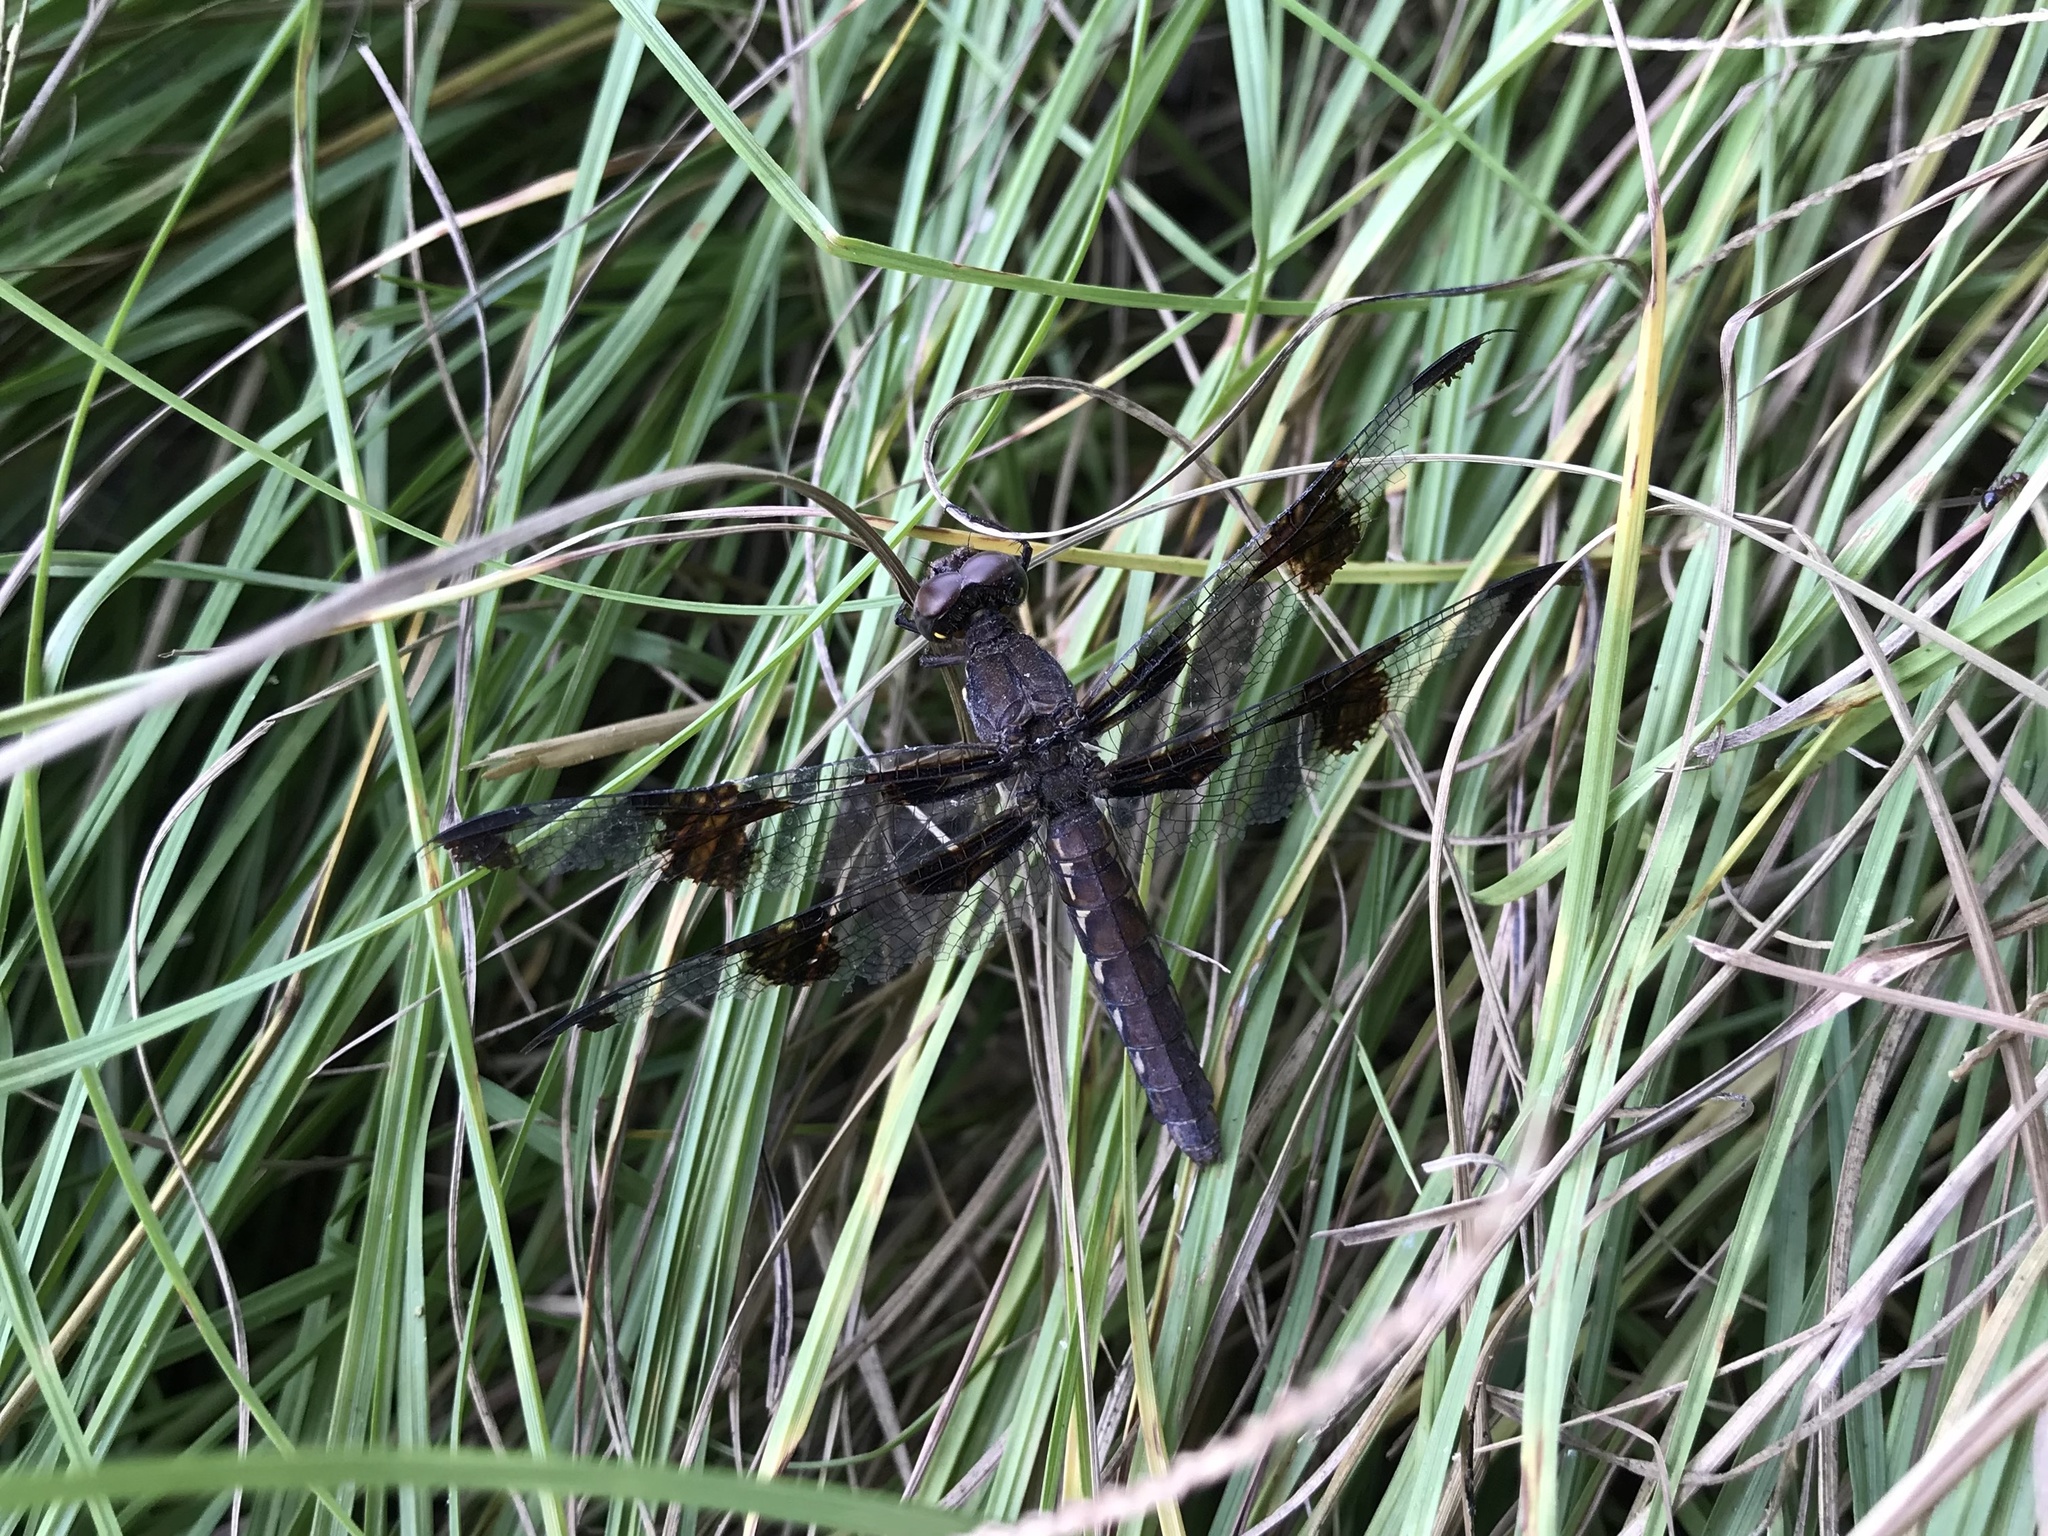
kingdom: Animalia
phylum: Arthropoda
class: Insecta
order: Odonata
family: Libellulidae
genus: Plathemis
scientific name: Plathemis lydia
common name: Common whitetail
